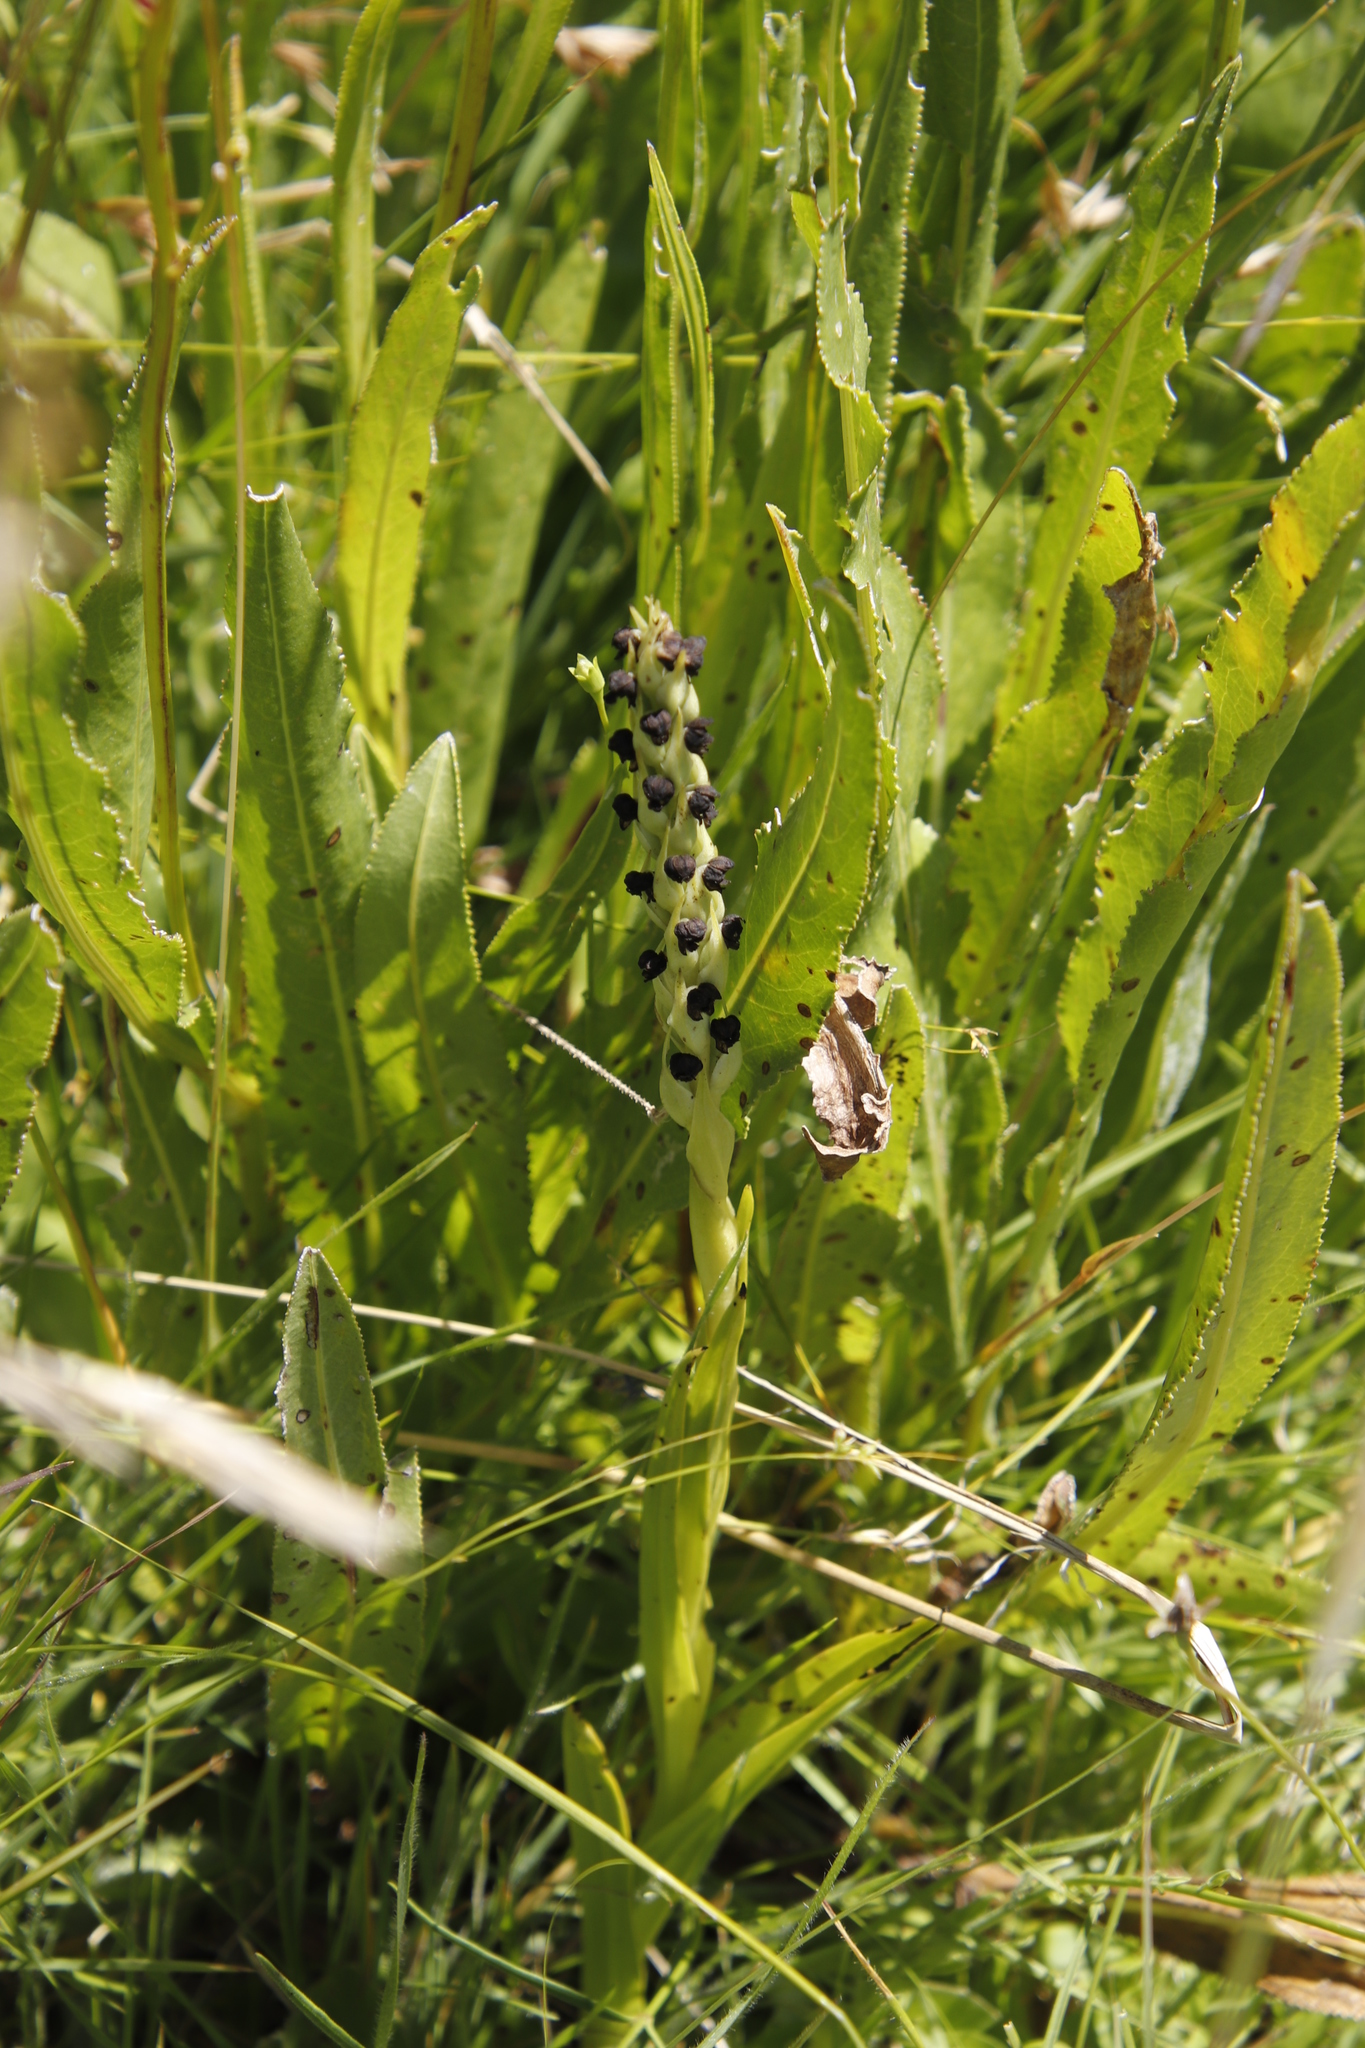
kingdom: Plantae
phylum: Tracheophyta
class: Liliopsida
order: Asparagales
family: Orchidaceae
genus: Corycium
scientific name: Corycium dracomontanum
